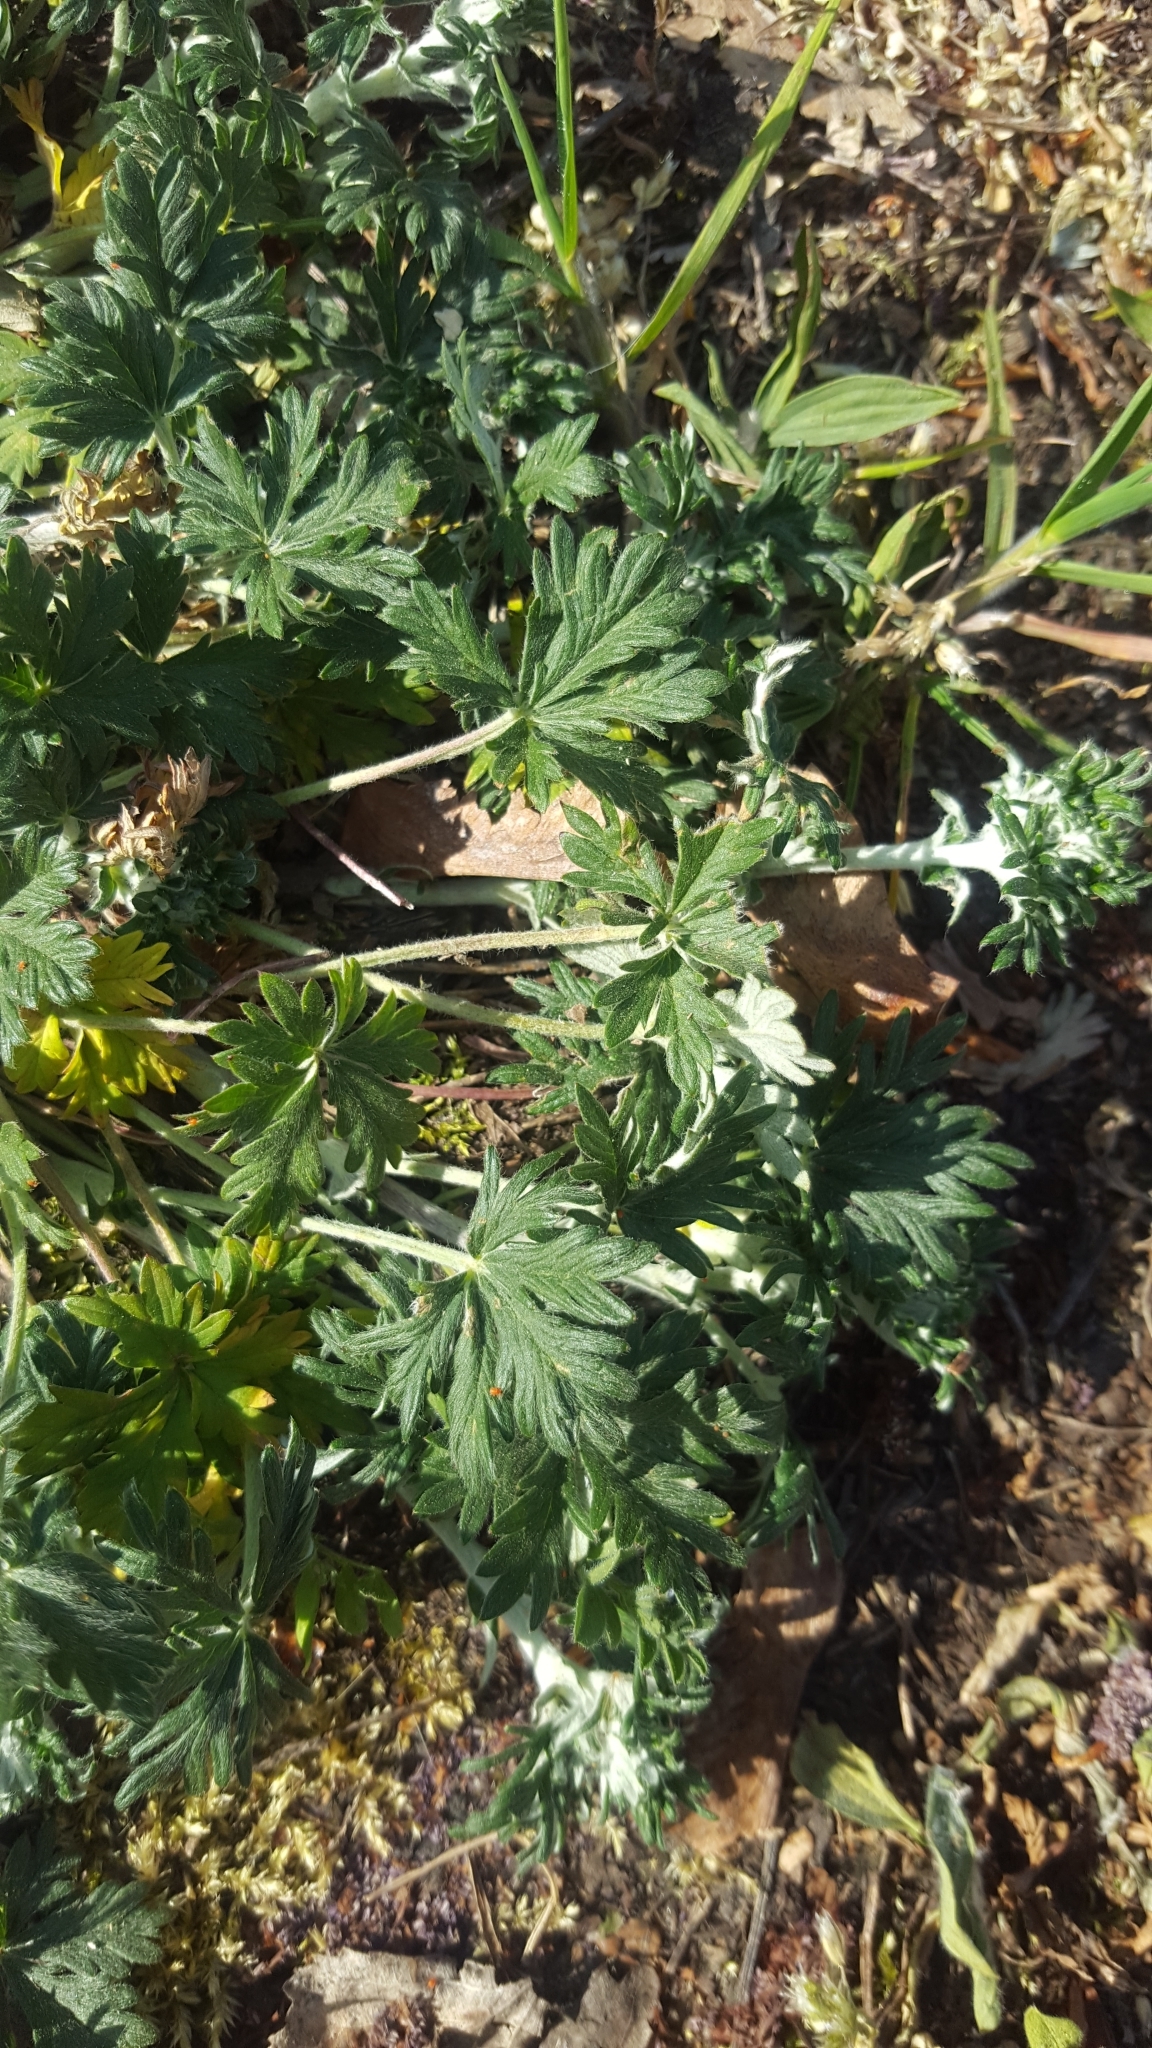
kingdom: Plantae
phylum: Tracheophyta
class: Magnoliopsida
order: Rosales
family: Rosaceae
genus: Potentilla
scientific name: Potentilla argentea
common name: Hoary cinquefoil
